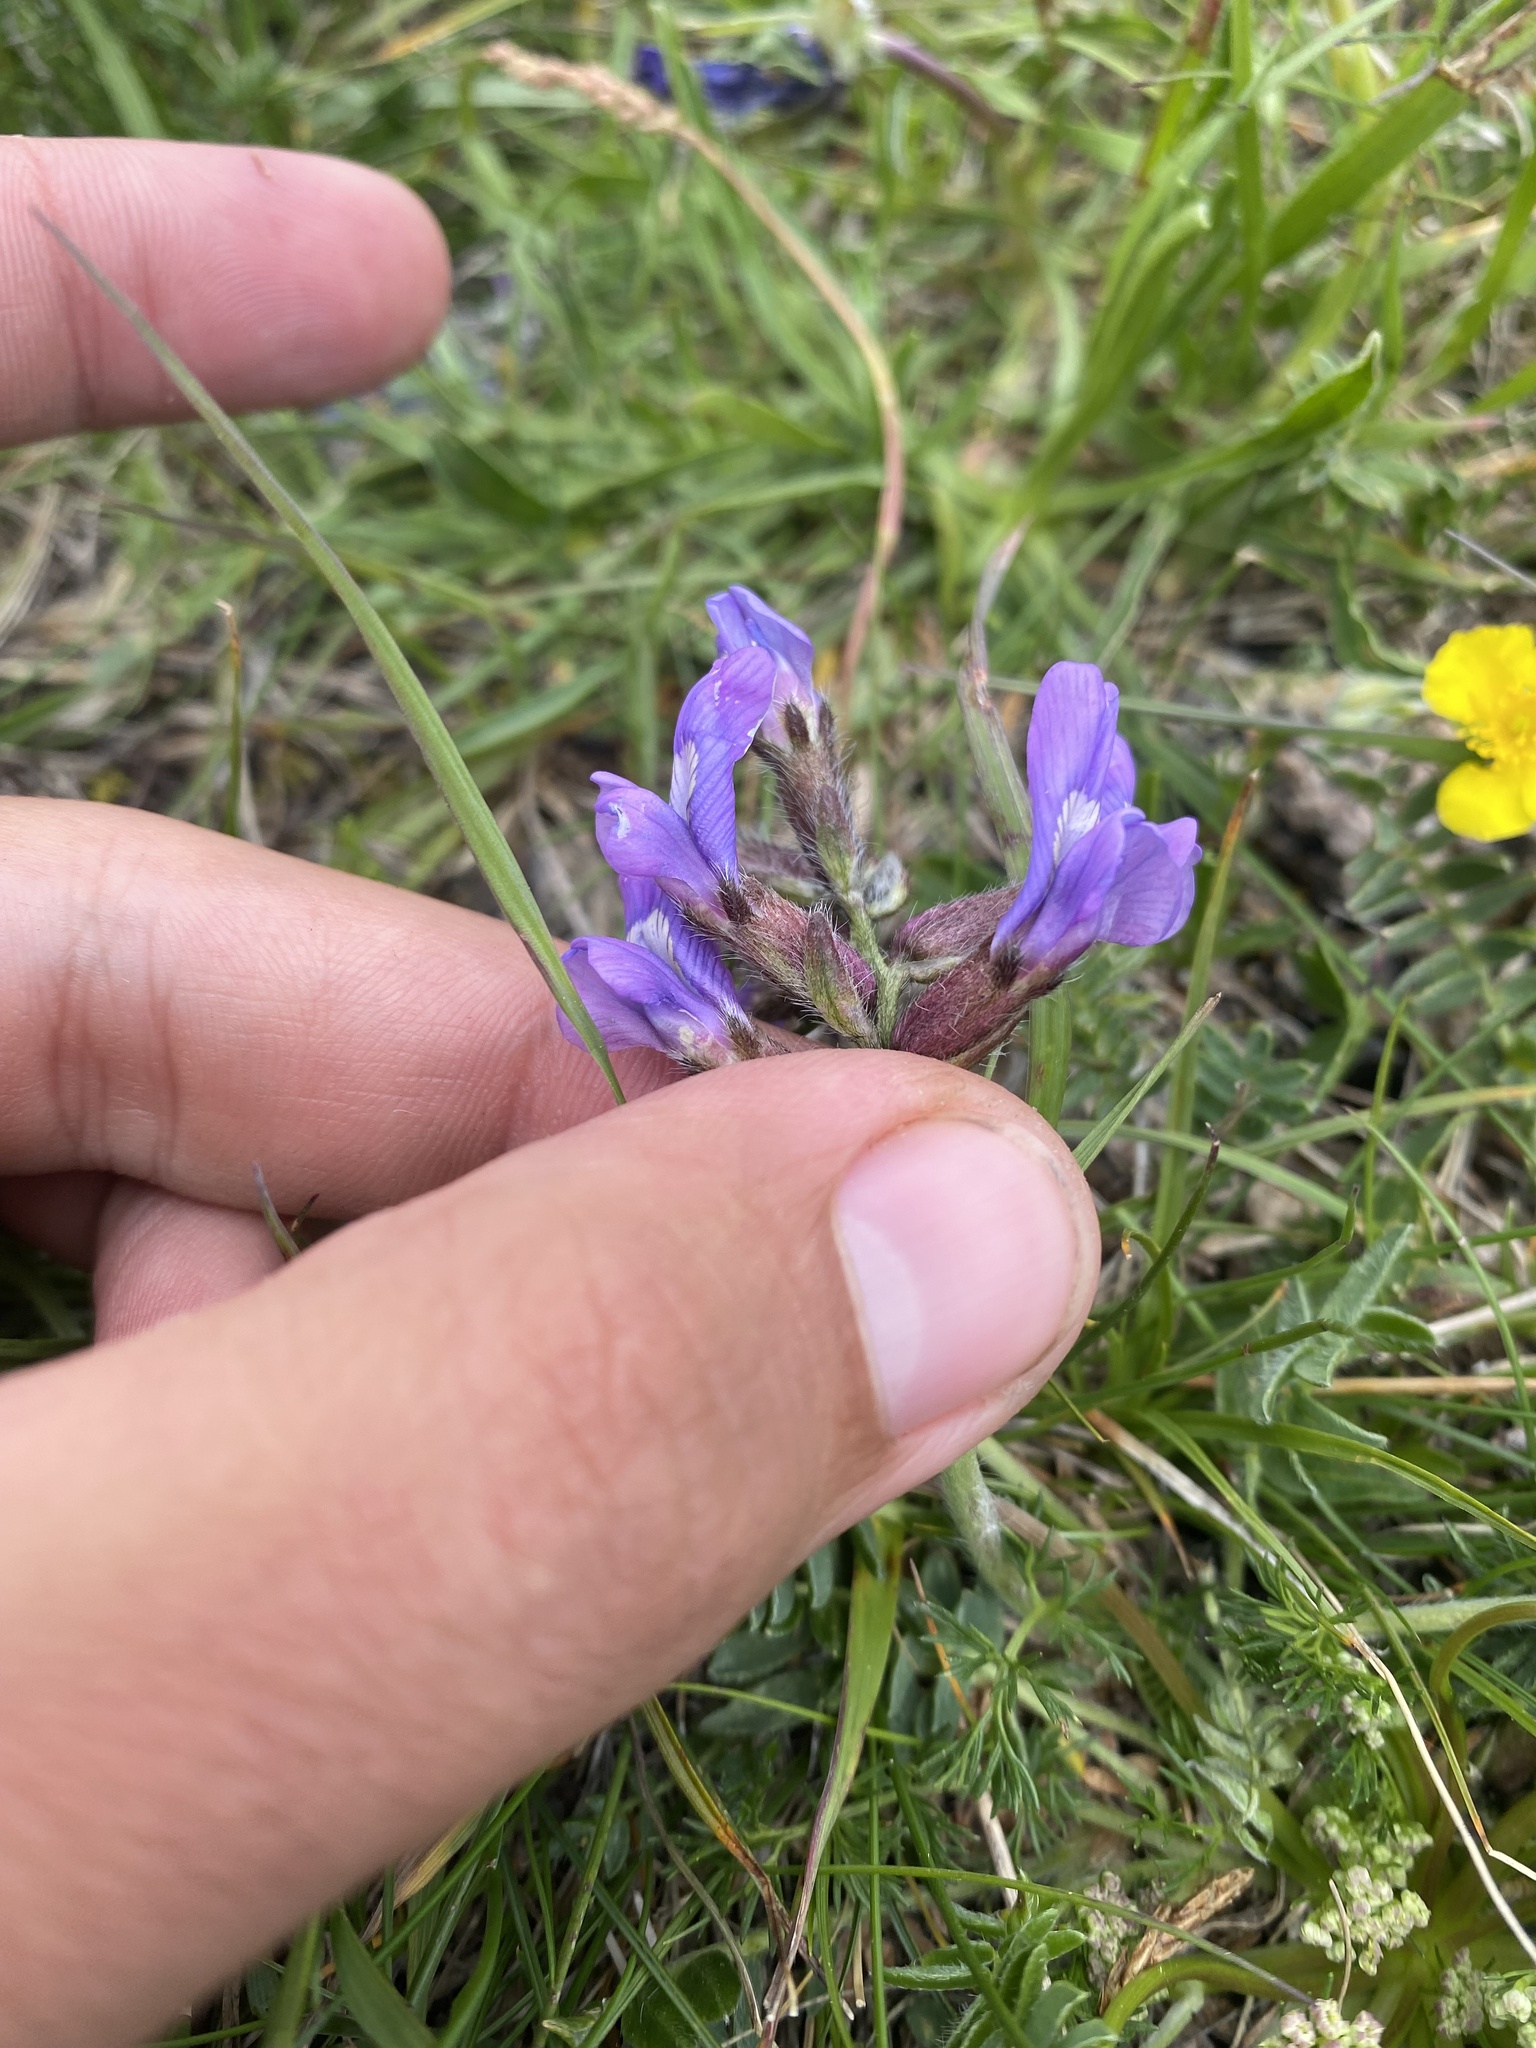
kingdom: Plantae
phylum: Tracheophyta
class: Magnoliopsida
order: Fabales
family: Fabaceae
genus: Oxytropis
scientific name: Oxytropis lazica
